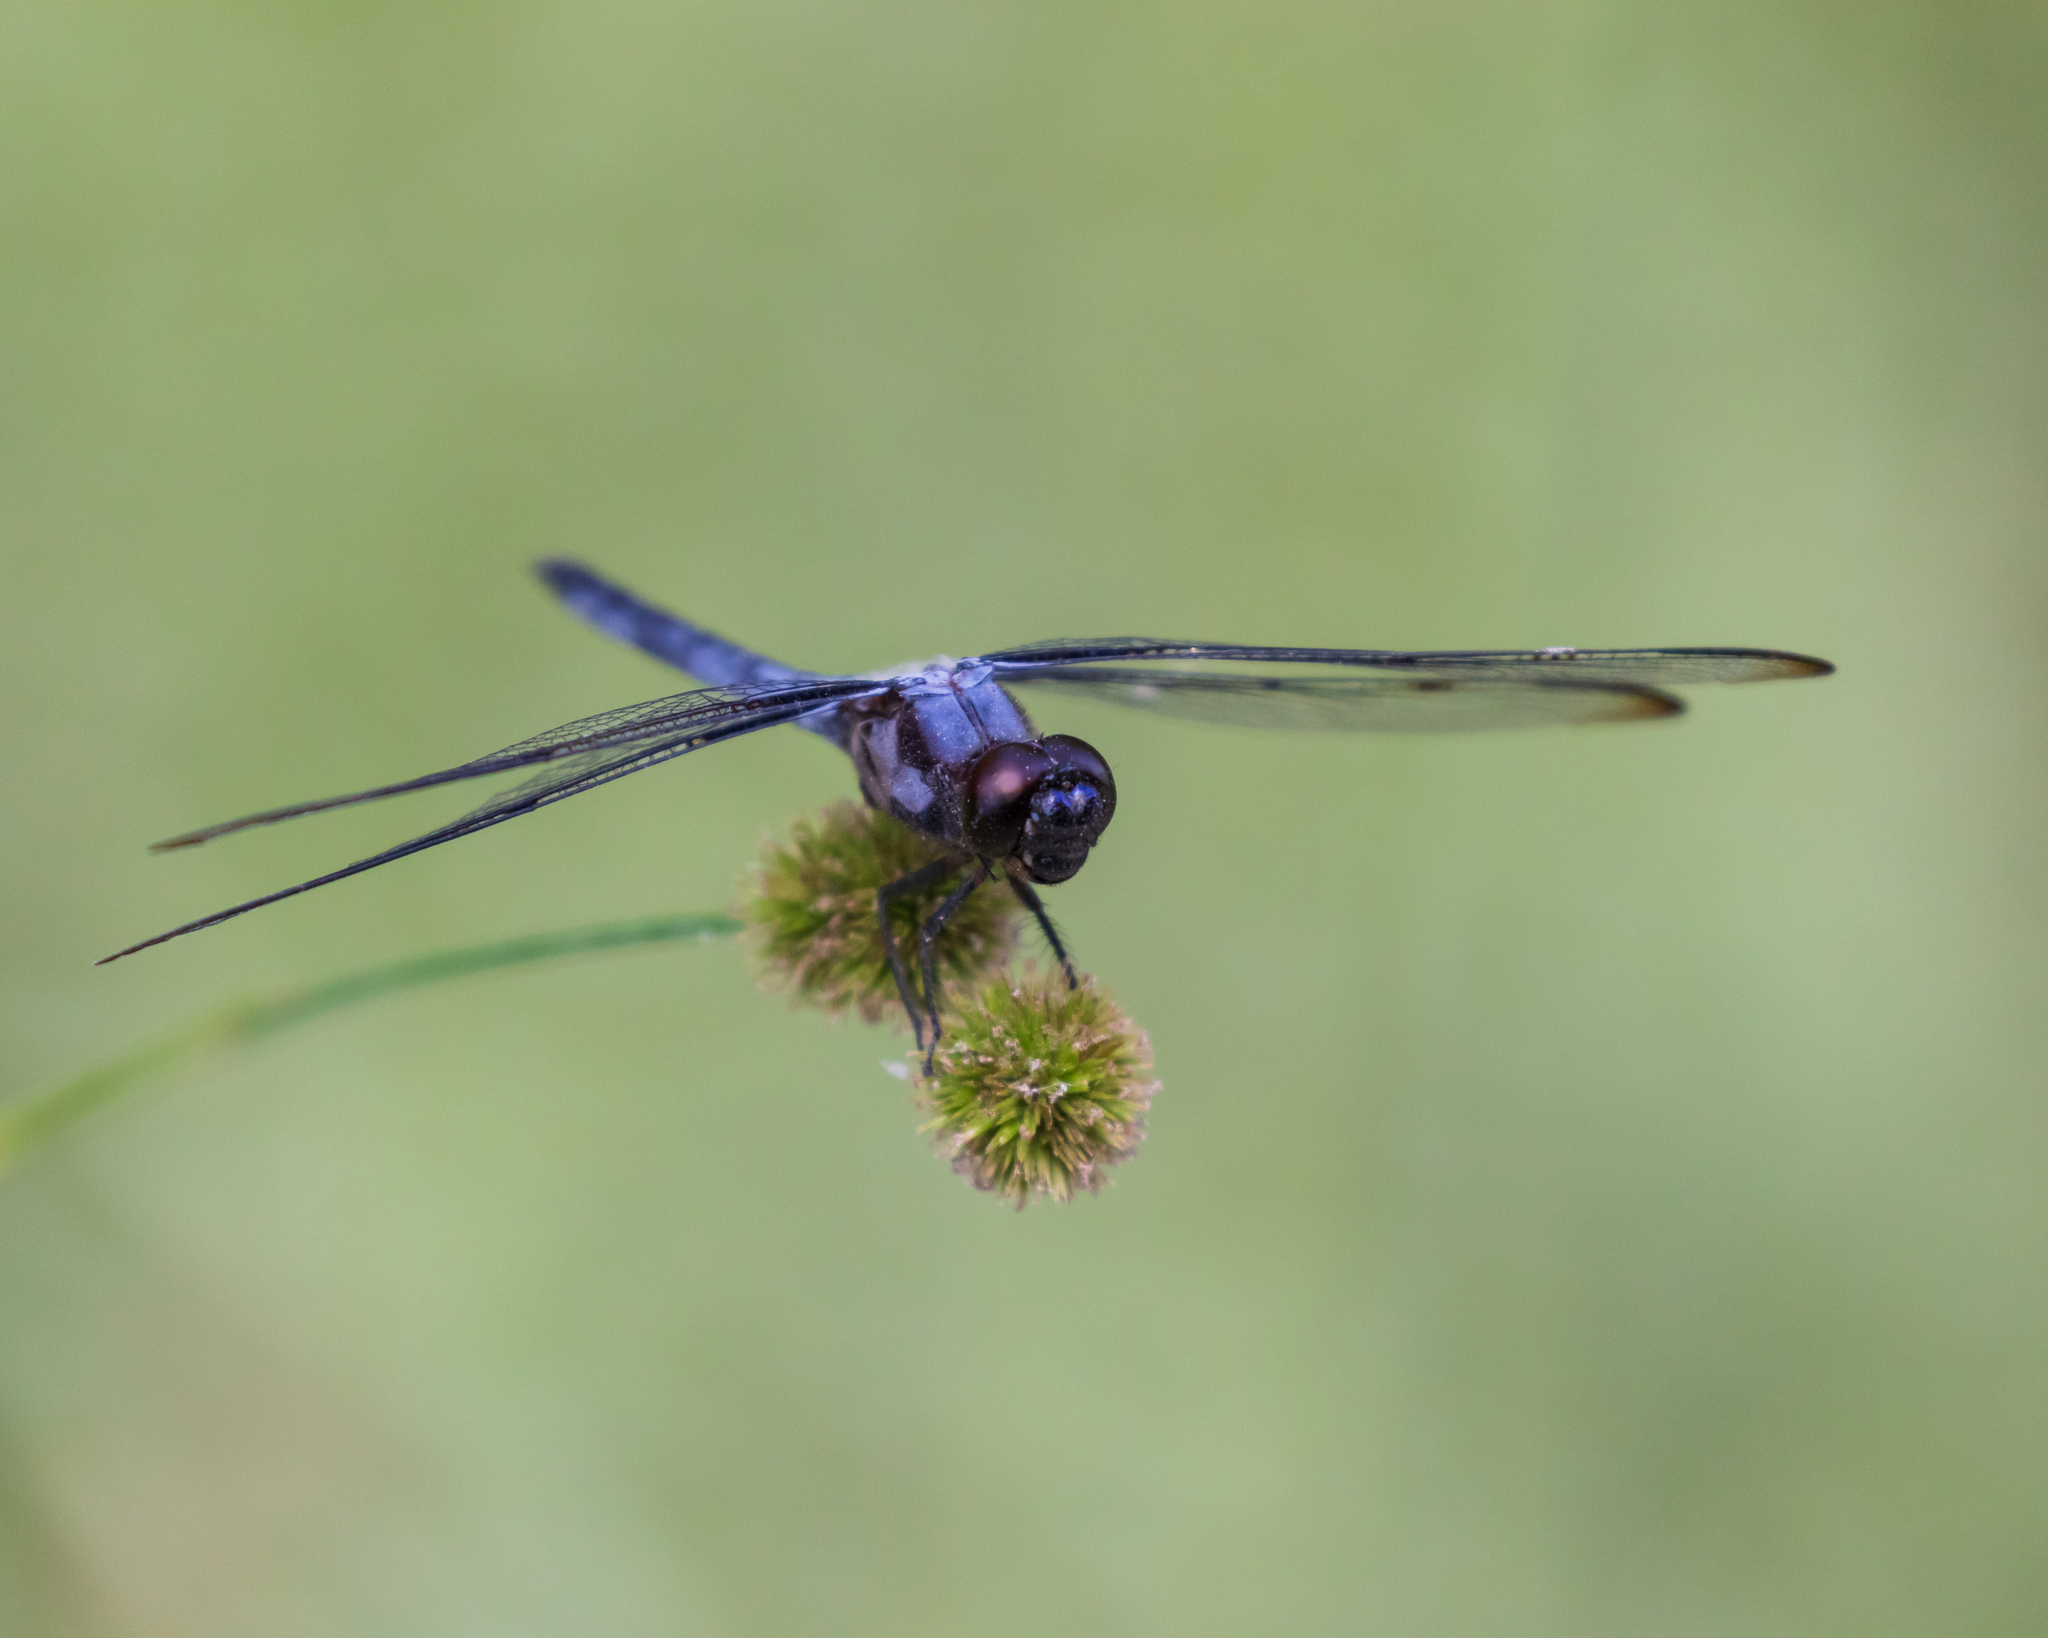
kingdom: Animalia
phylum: Arthropoda
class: Insecta
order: Odonata
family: Libellulidae
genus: Libellula
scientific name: Libellula incesta
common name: Slaty skimmer
